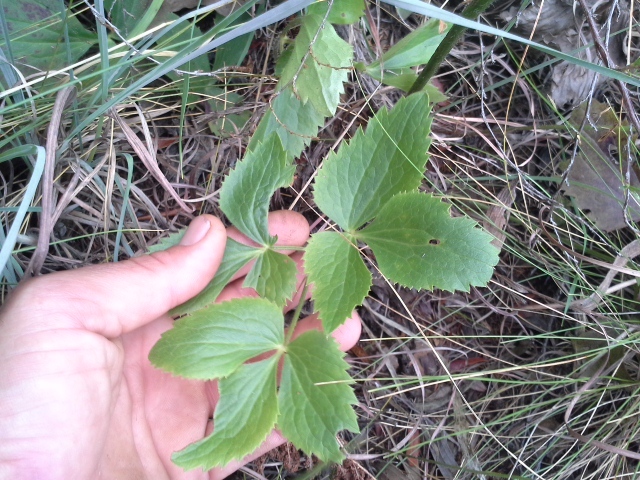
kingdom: Plantae
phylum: Tracheophyta
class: Magnoliopsida
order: Ranunculales
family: Ranunculaceae
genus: Knowltonia
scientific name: Knowltonia transvaalensis
